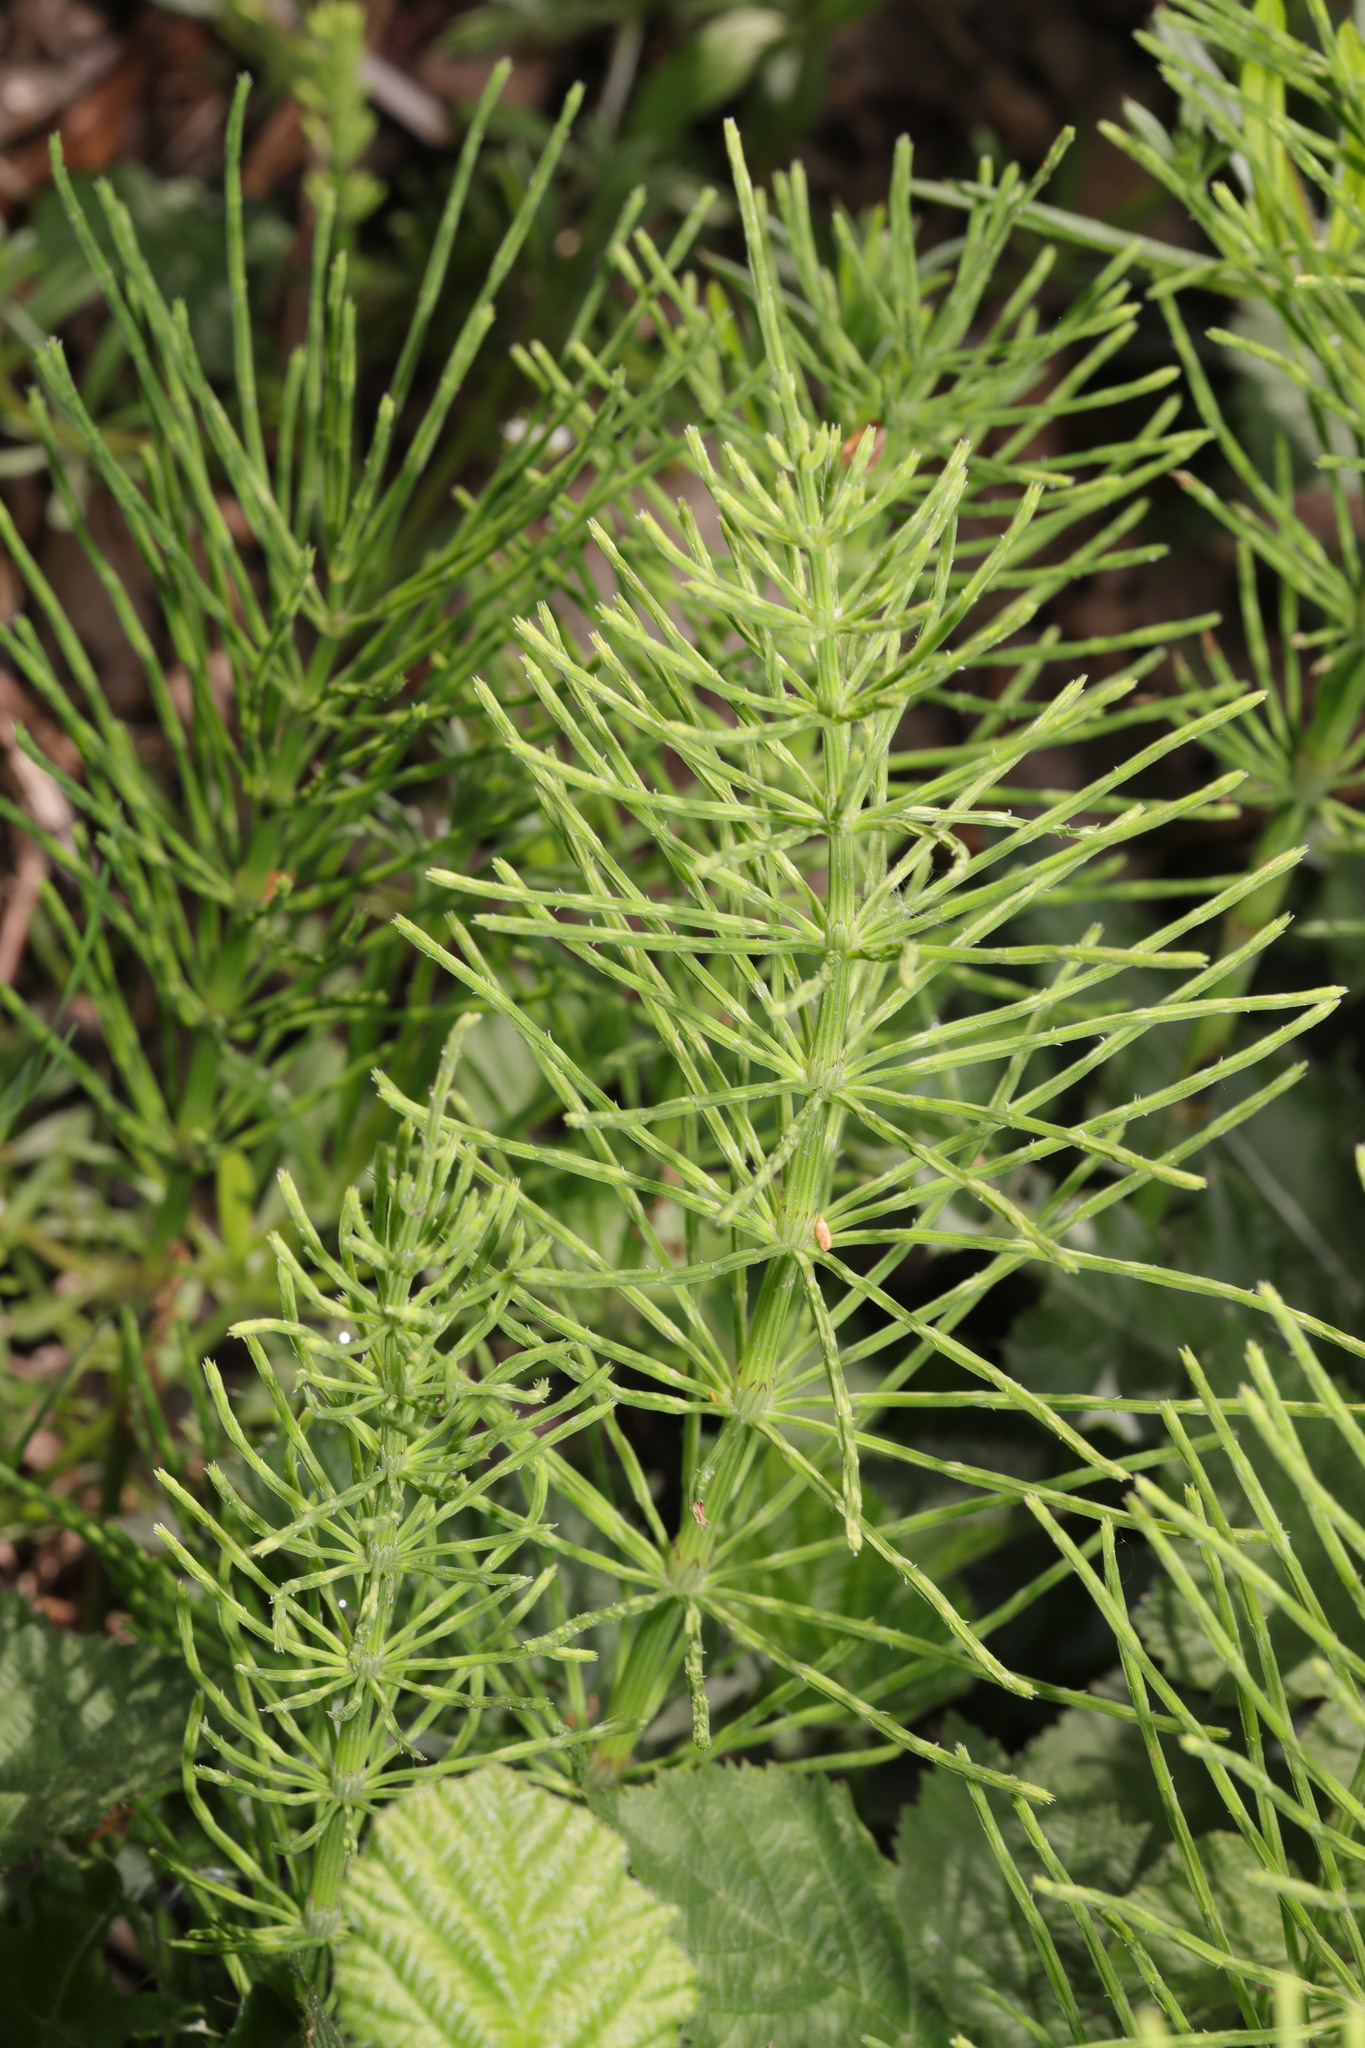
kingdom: Plantae
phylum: Tracheophyta
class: Polypodiopsida
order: Equisetales
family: Equisetaceae
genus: Equisetum
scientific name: Equisetum arvense
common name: Field horsetail
